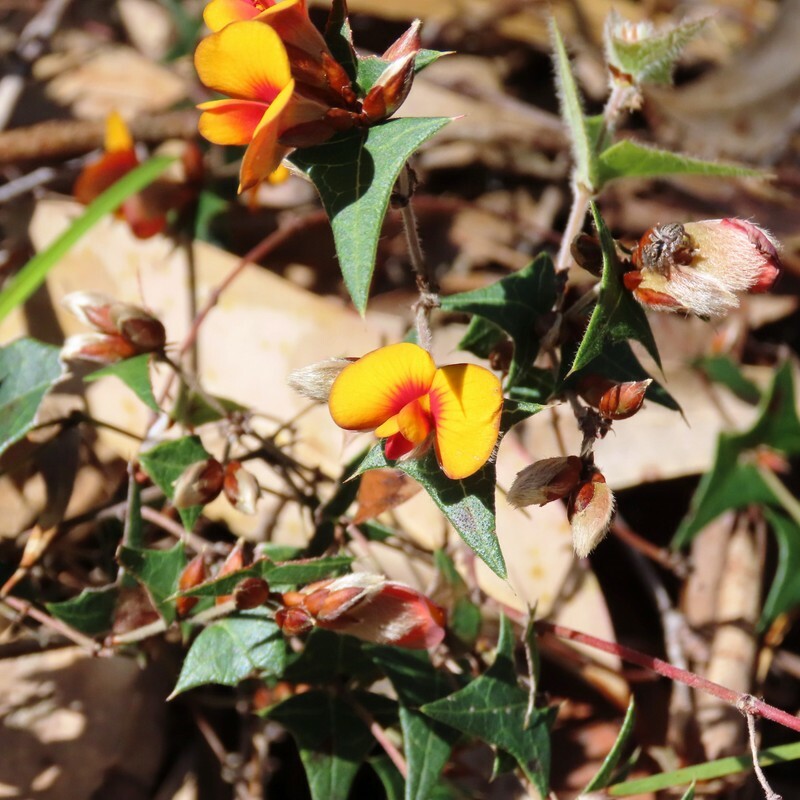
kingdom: Plantae
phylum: Tracheophyta
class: Magnoliopsida
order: Fabales
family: Fabaceae
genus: Platylobium
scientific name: Platylobium obtusangulum
